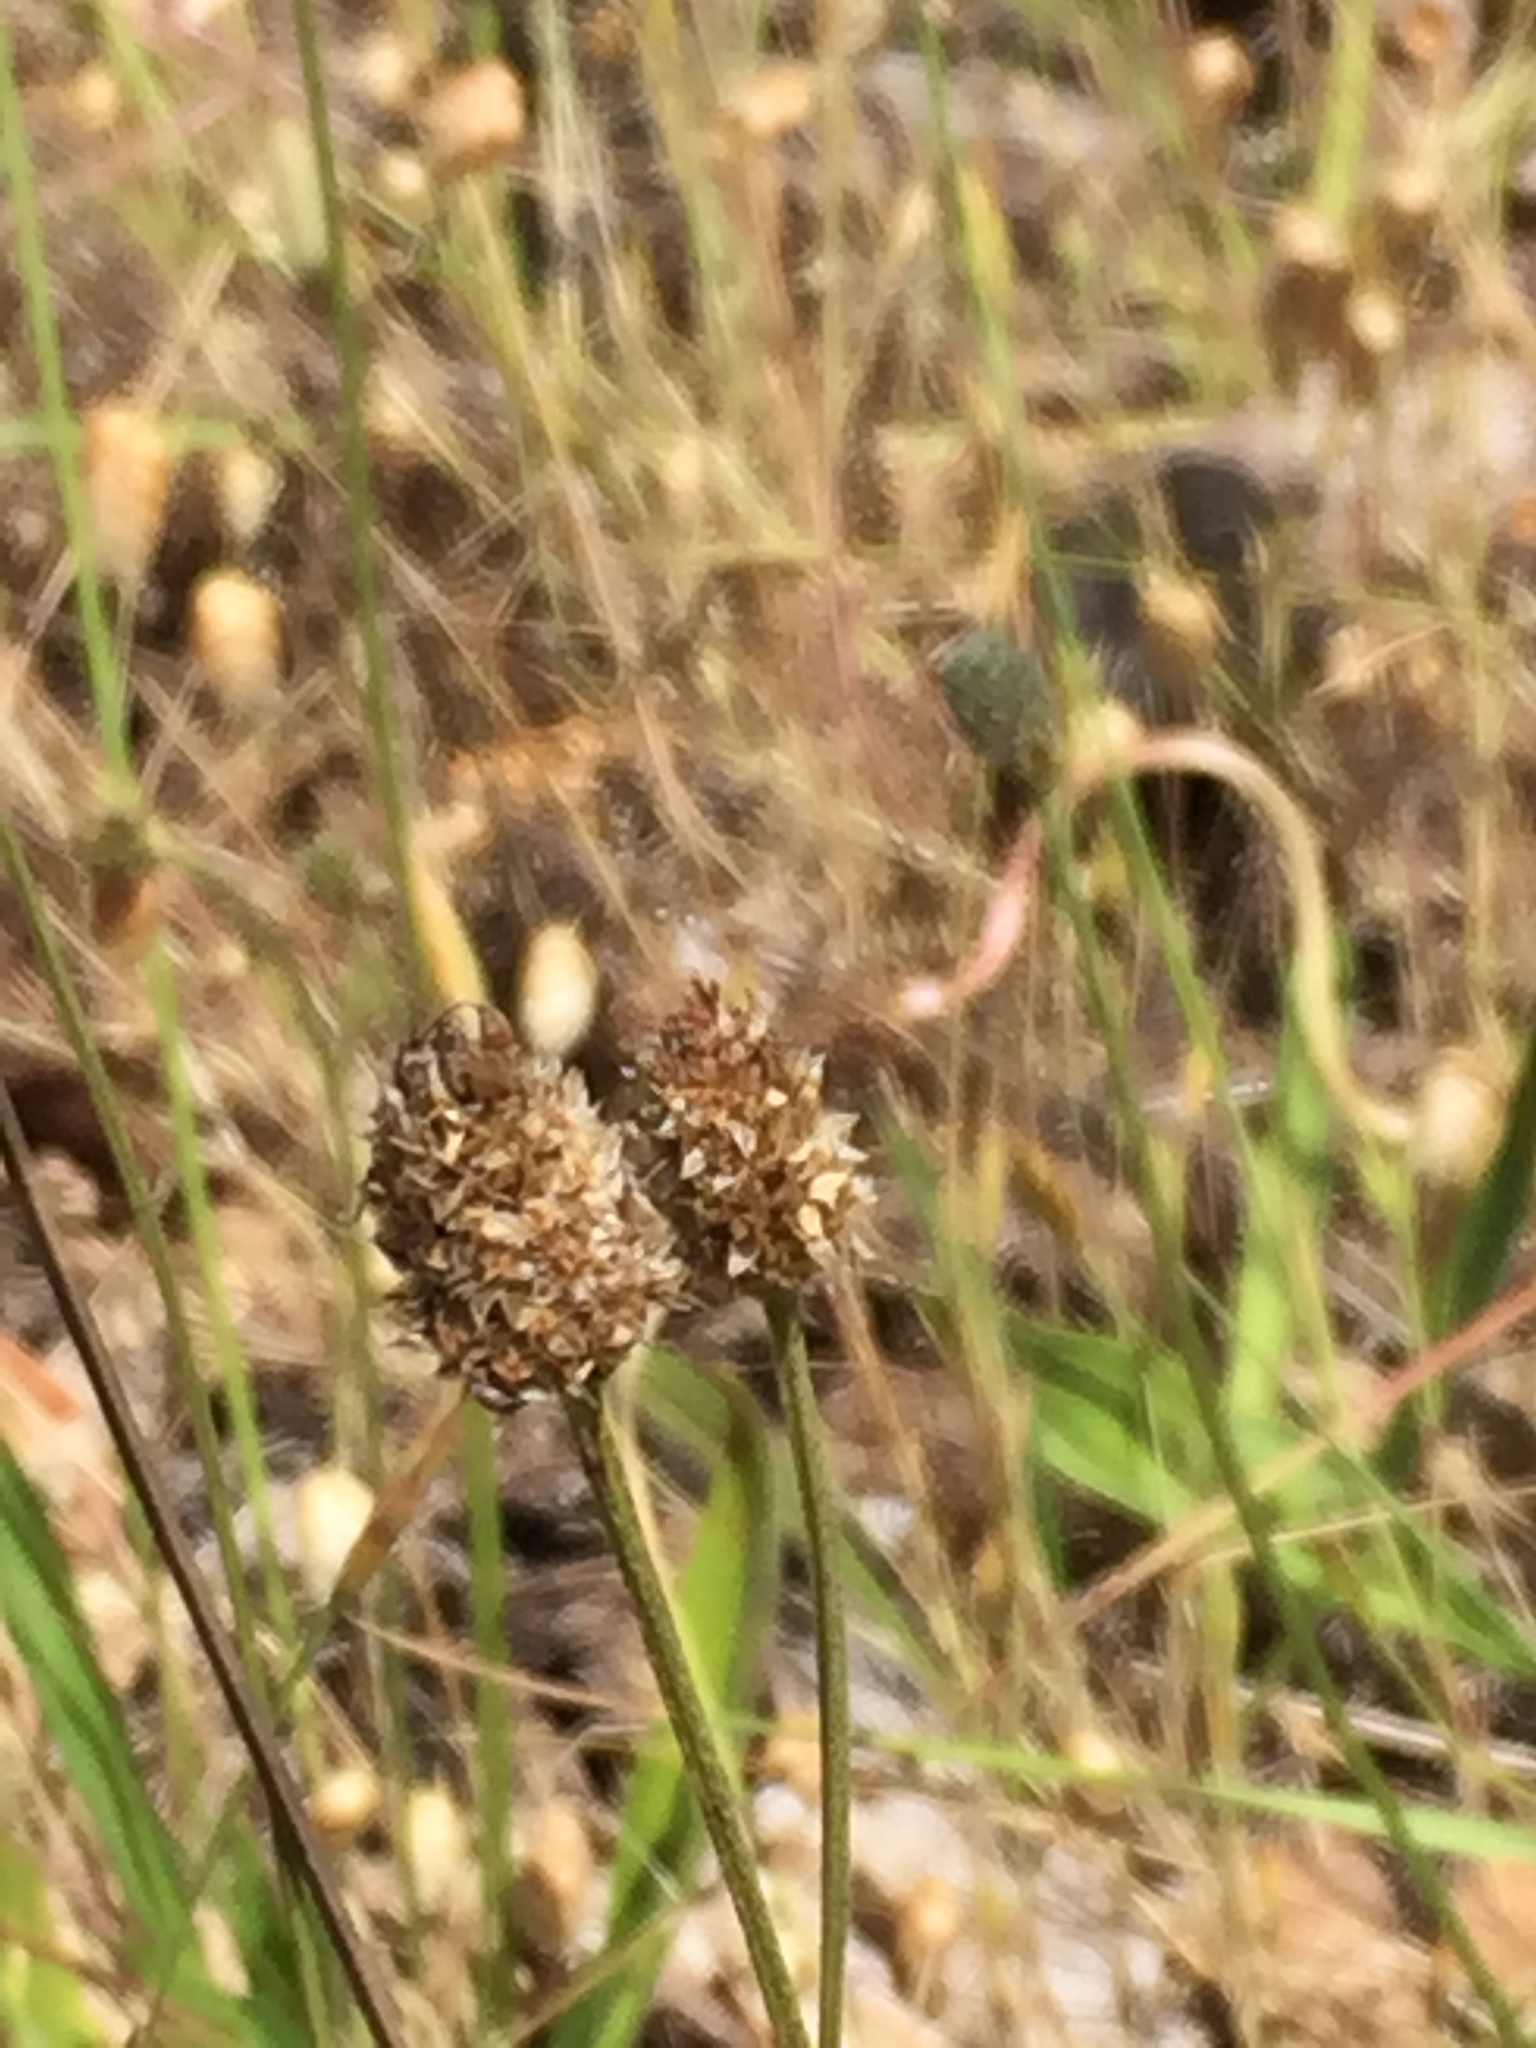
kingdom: Plantae
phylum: Tracheophyta
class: Magnoliopsida
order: Lamiales
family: Plantaginaceae
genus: Plantago
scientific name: Plantago lanceolata
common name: Ribwort plantain
